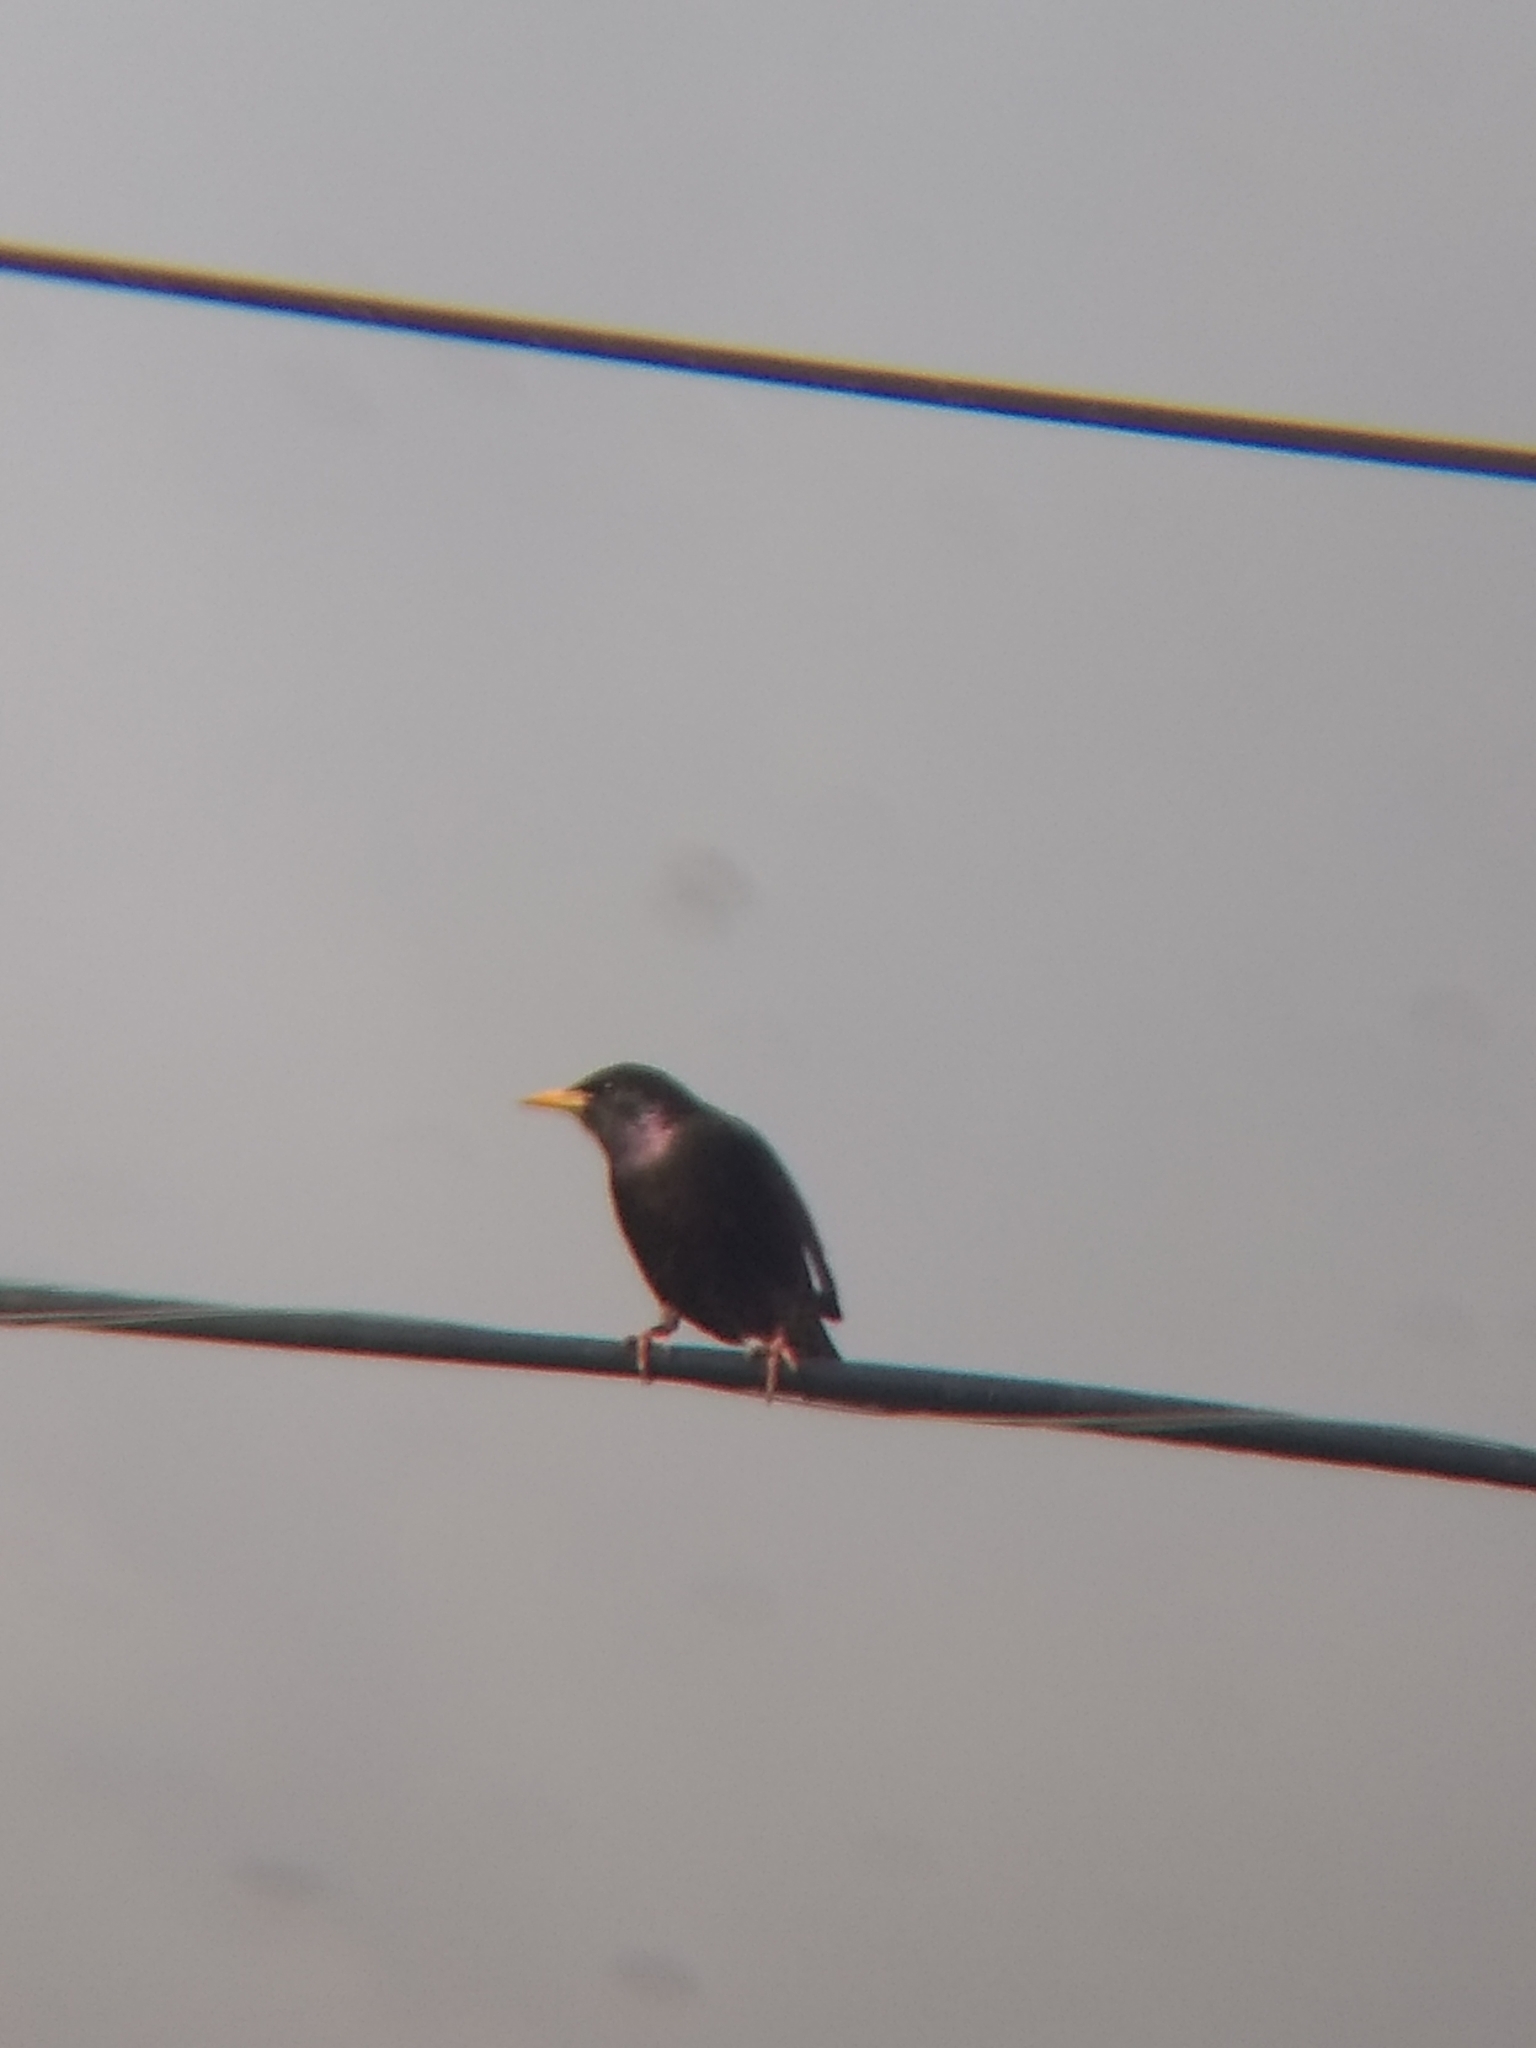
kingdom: Animalia
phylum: Chordata
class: Aves
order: Passeriformes
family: Sturnidae
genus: Sturnus
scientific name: Sturnus vulgaris
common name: Common starling
